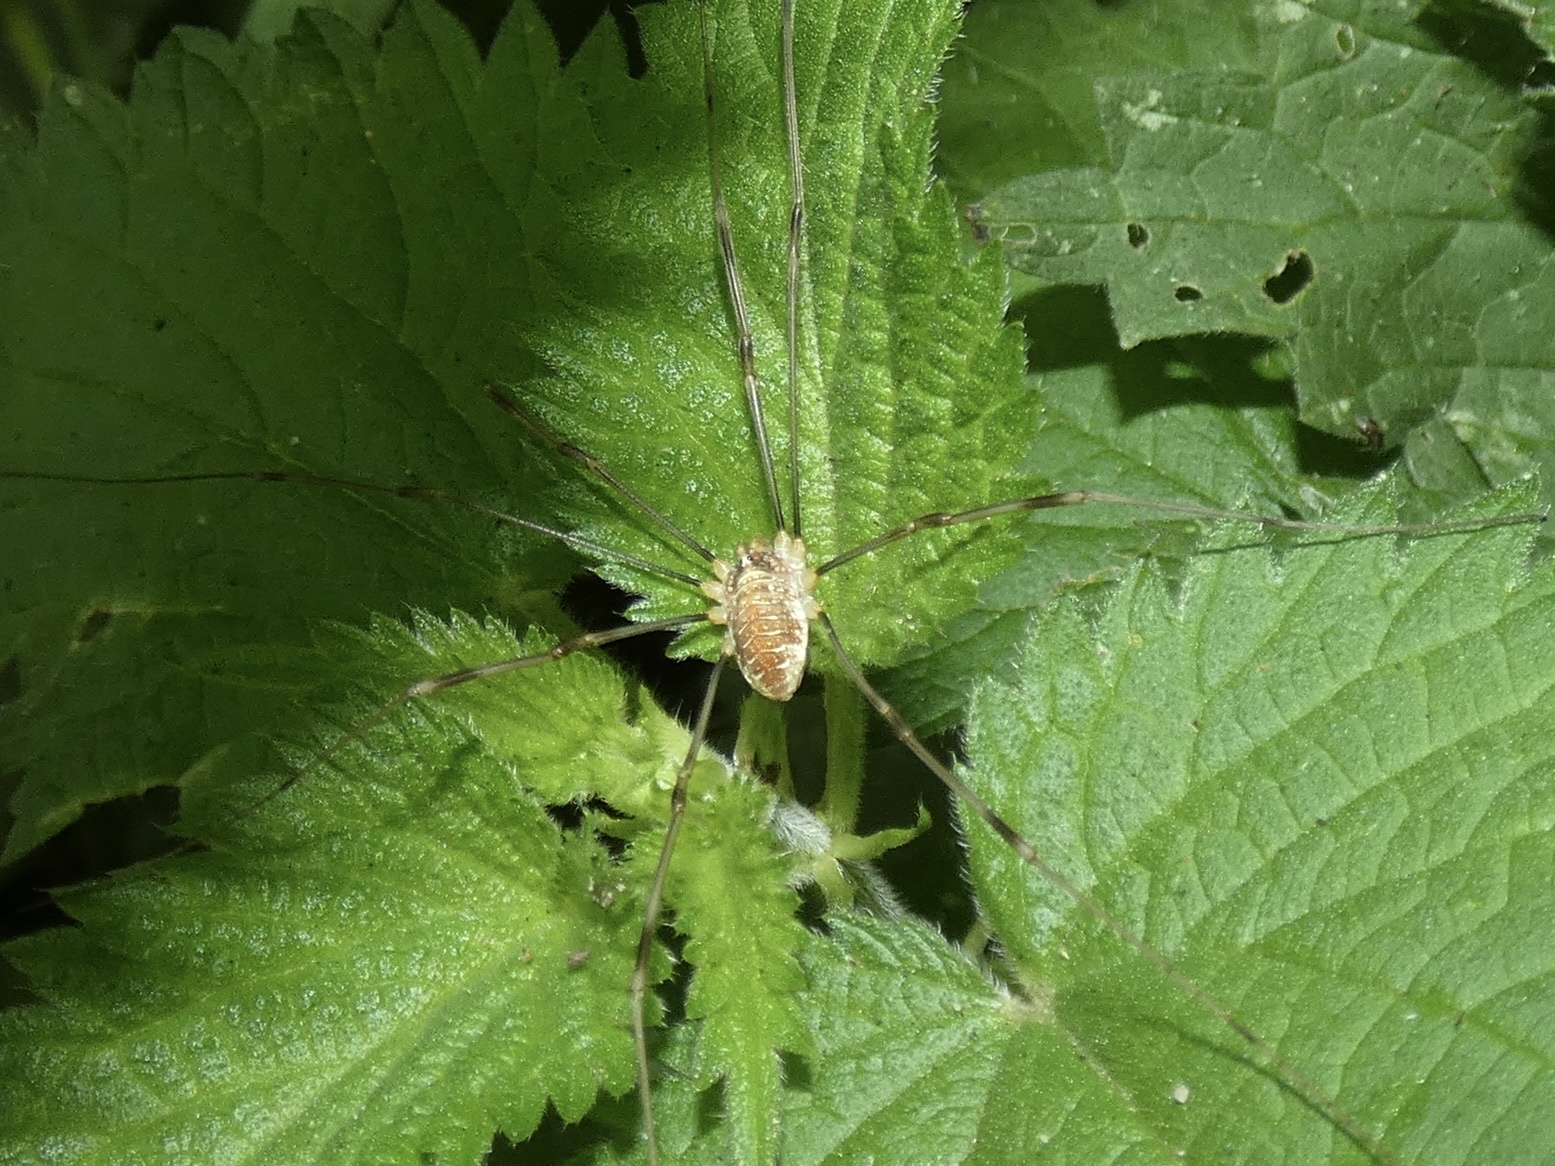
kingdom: Animalia
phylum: Arthropoda
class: Arachnida
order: Opiliones
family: Phalangiidae
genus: Opilio
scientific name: Opilio canestrinii
